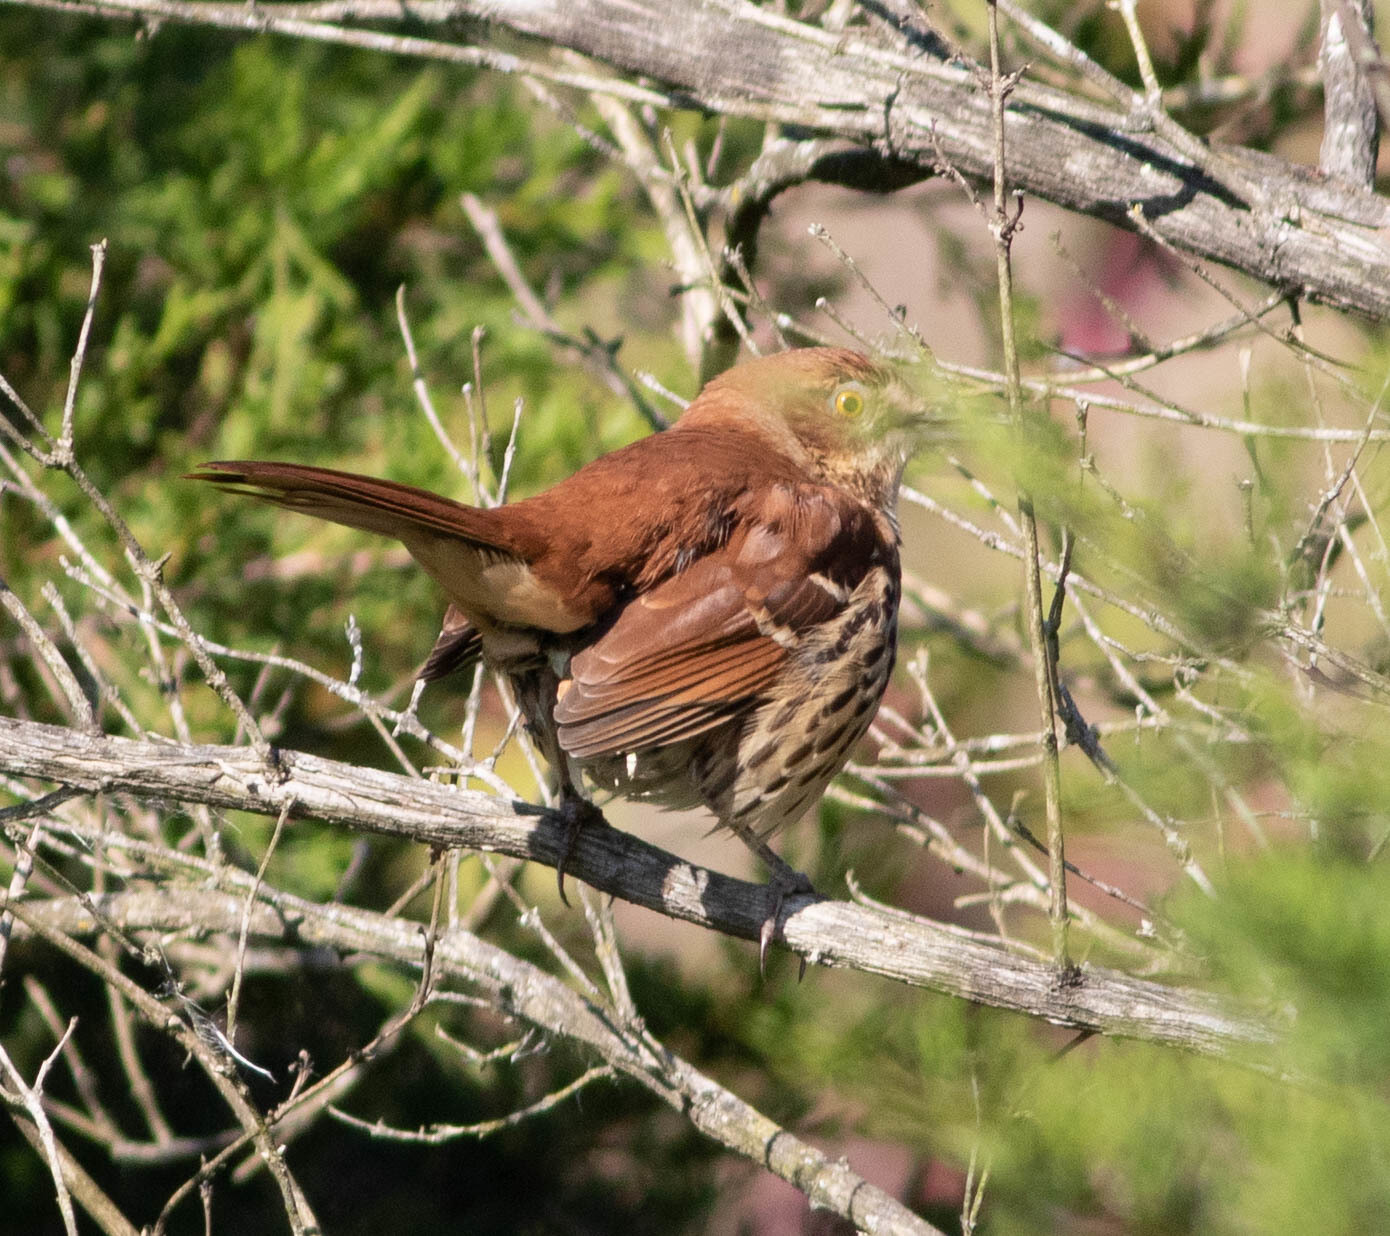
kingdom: Animalia
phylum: Chordata
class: Aves
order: Passeriformes
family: Mimidae
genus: Toxostoma
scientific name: Toxostoma rufum
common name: Brown thrasher
